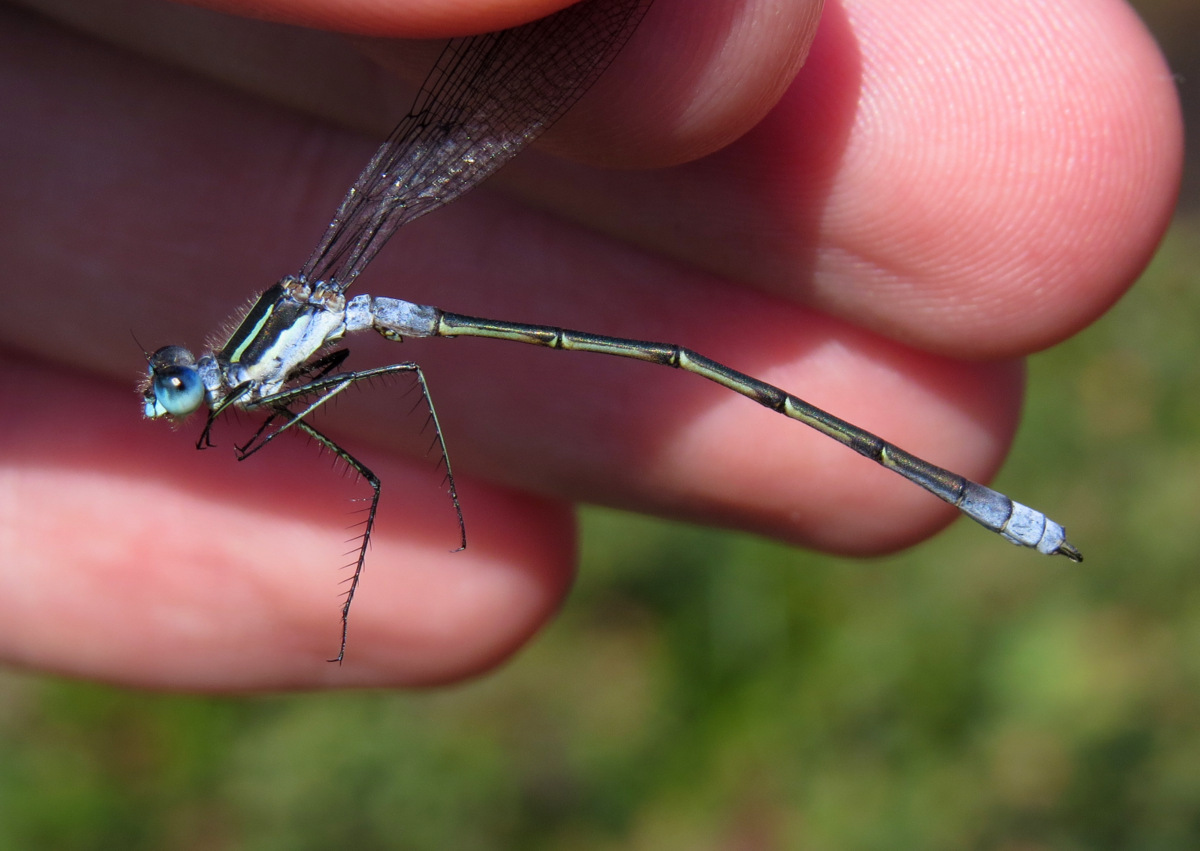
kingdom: Animalia
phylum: Arthropoda
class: Insecta
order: Odonata
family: Lestidae
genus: Lestes
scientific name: Lestes disjunctus
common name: Northern spreadwing
